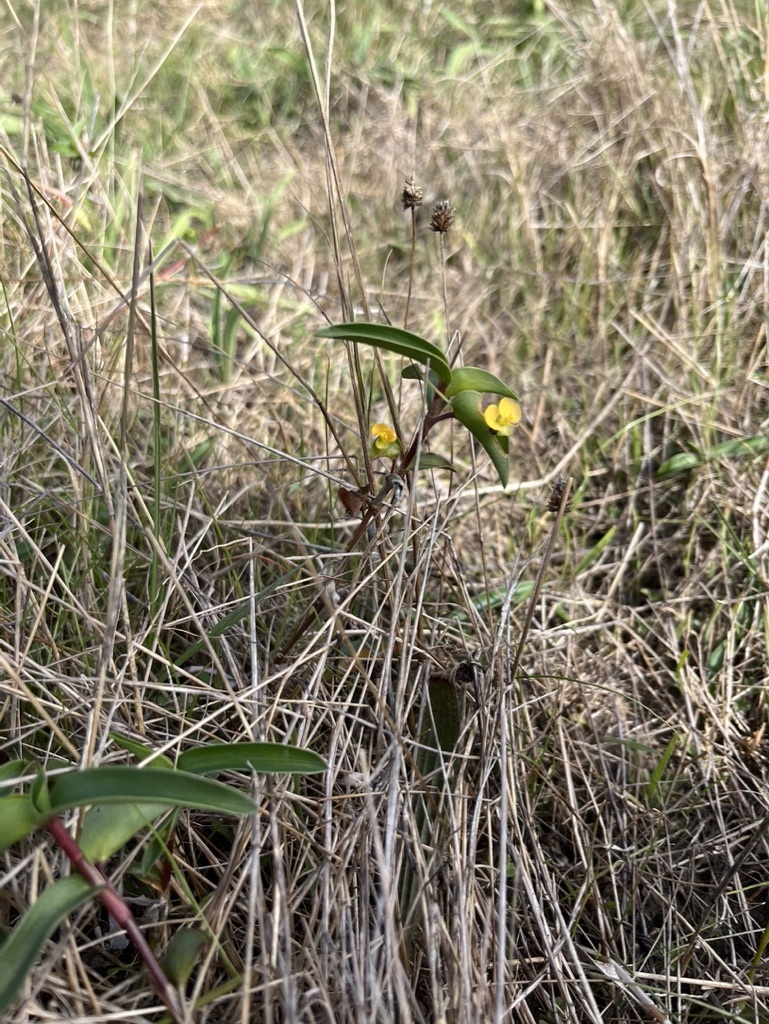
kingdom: Plantae
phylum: Tracheophyta
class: Liliopsida
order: Commelinales
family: Commelinaceae
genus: Commelina
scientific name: Commelina africana
